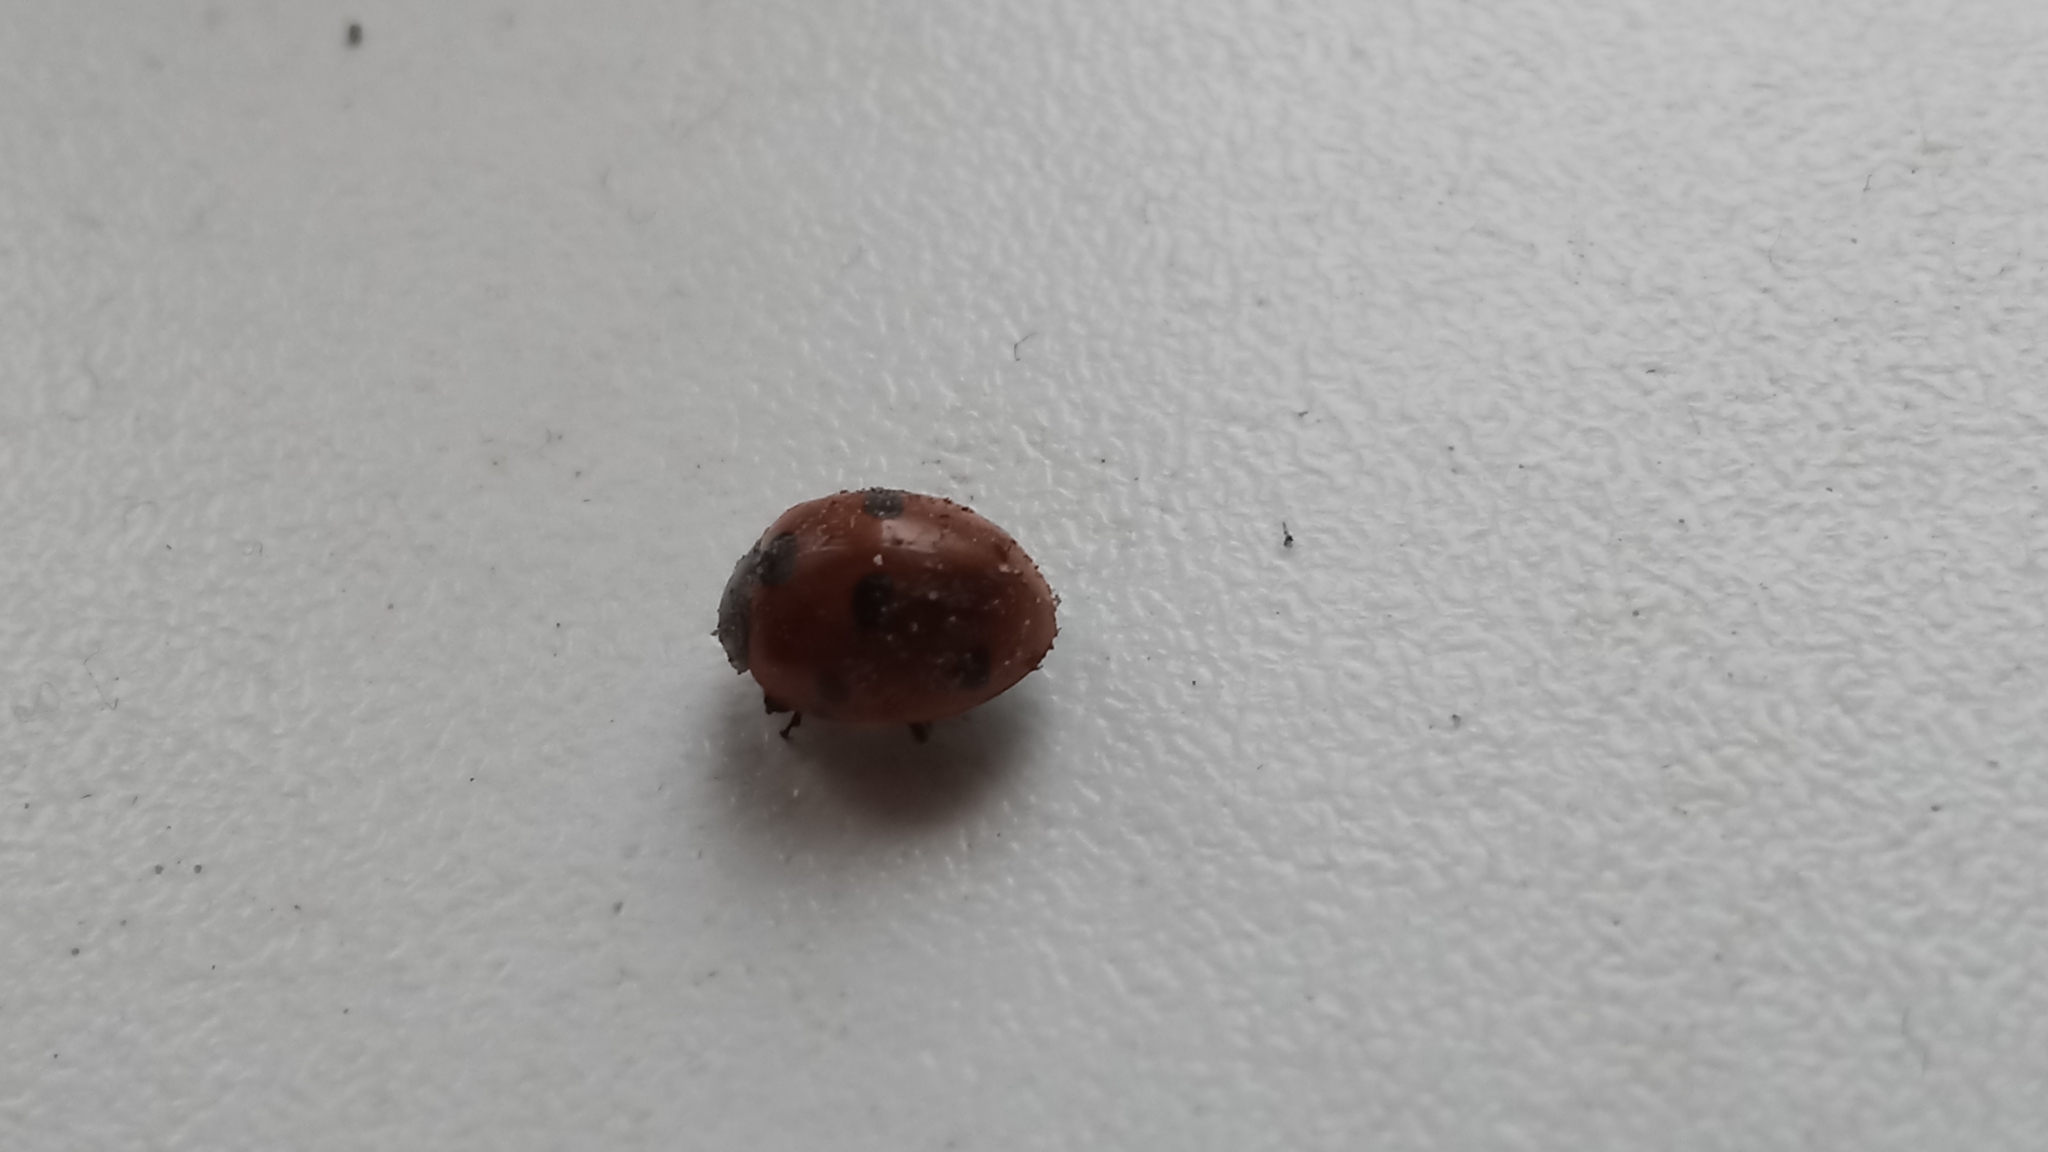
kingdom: Animalia
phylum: Arthropoda
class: Insecta
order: Coleoptera
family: Coccinellidae
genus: Coccinella
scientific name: Coccinella septempunctata
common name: Sevenspotted lady beetle
